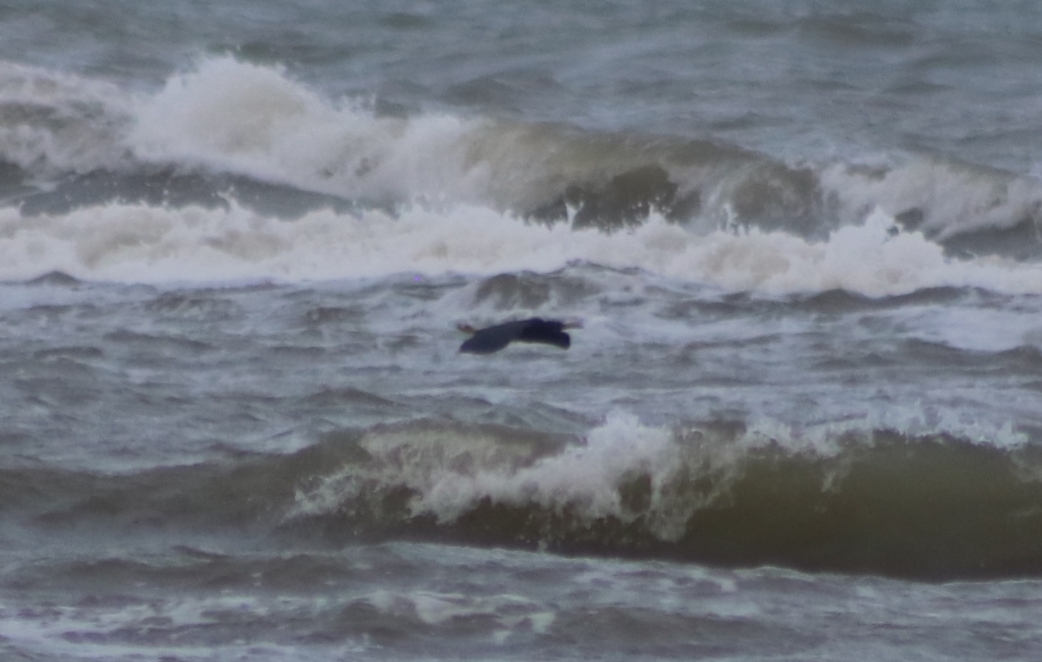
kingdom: Animalia
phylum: Chordata
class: Aves
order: Pelecaniformes
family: Ardeidae
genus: Egretta
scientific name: Egretta sacra
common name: Pacific reef heron
